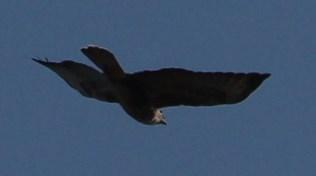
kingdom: Animalia
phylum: Chordata
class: Aves
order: Accipitriformes
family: Accipitridae
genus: Buteo
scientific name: Buteo trizonatus
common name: Forest buzzard
